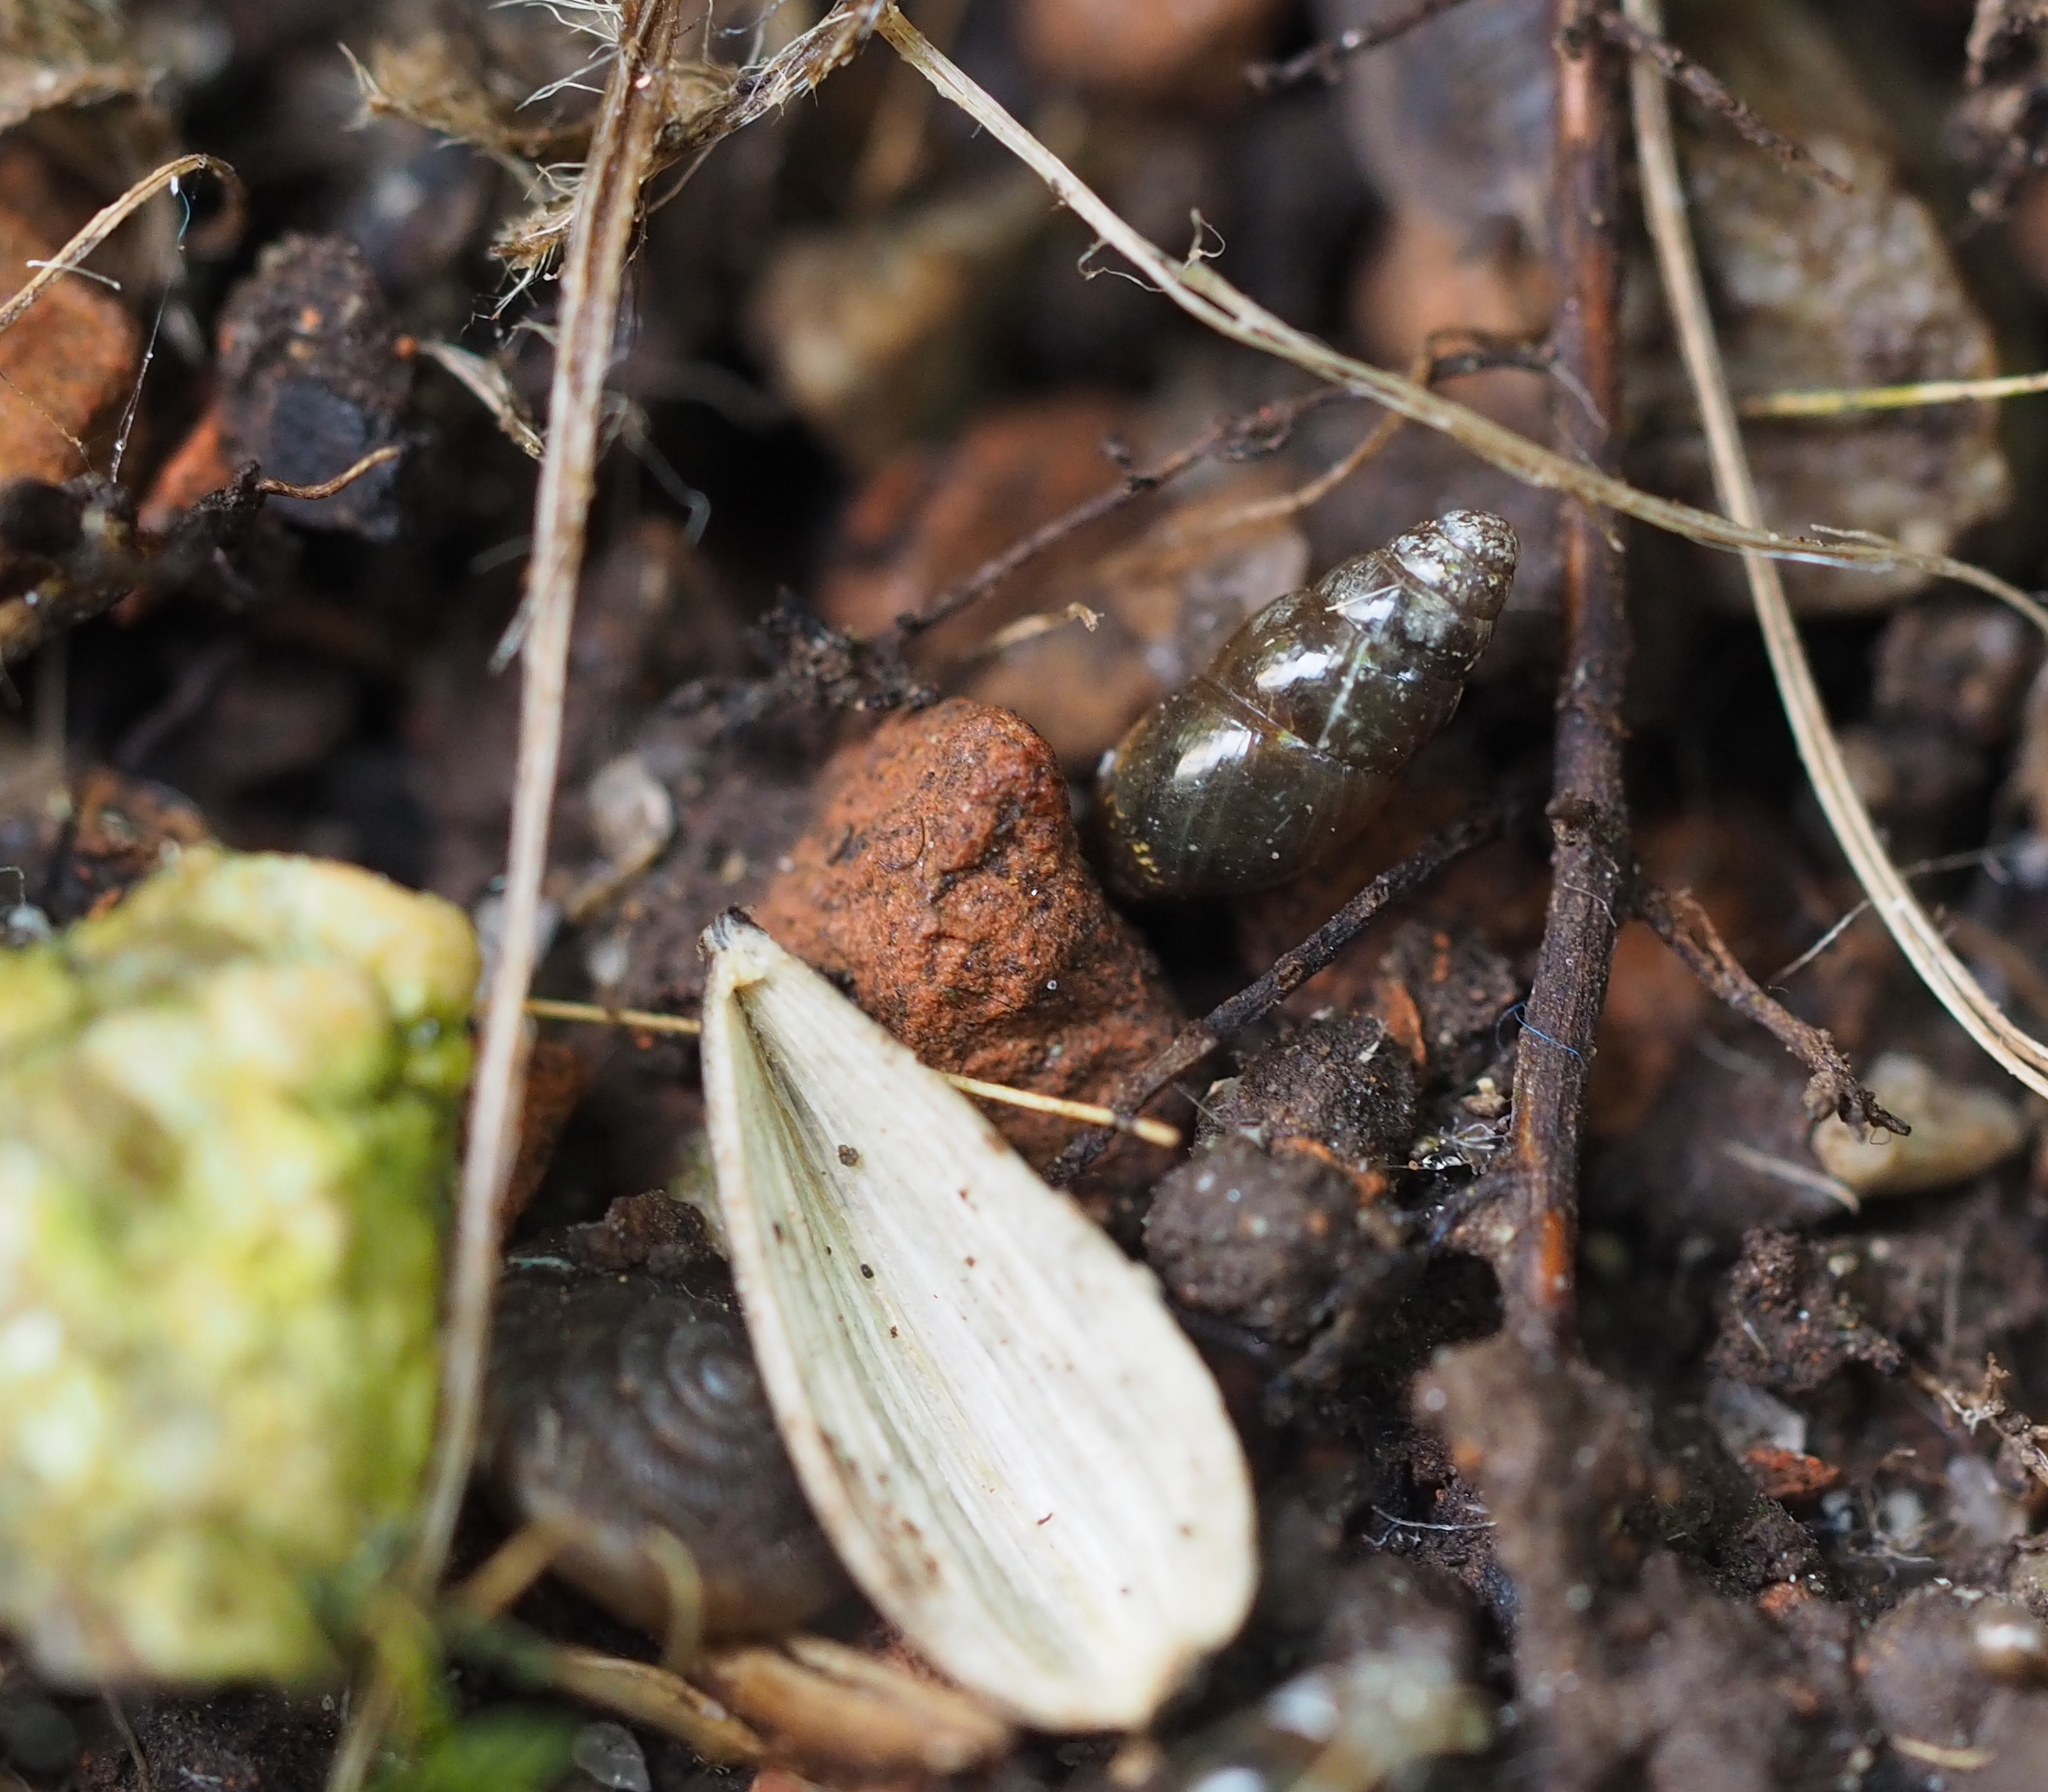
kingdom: Animalia
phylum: Mollusca
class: Gastropoda
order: Stylommatophora
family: Cochlicopidae
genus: Cochlicopa
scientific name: Cochlicopa lubrica
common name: Glossy pillar snail
